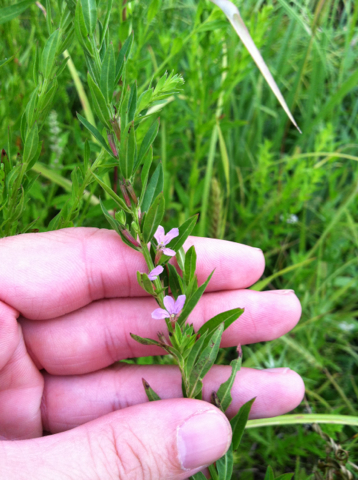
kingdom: Plantae
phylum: Tracheophyta
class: Magnoliopsida
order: Myrtales
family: Lythraceae
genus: Lythrum
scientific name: Lythrum alatum
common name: Winged loosestrife
